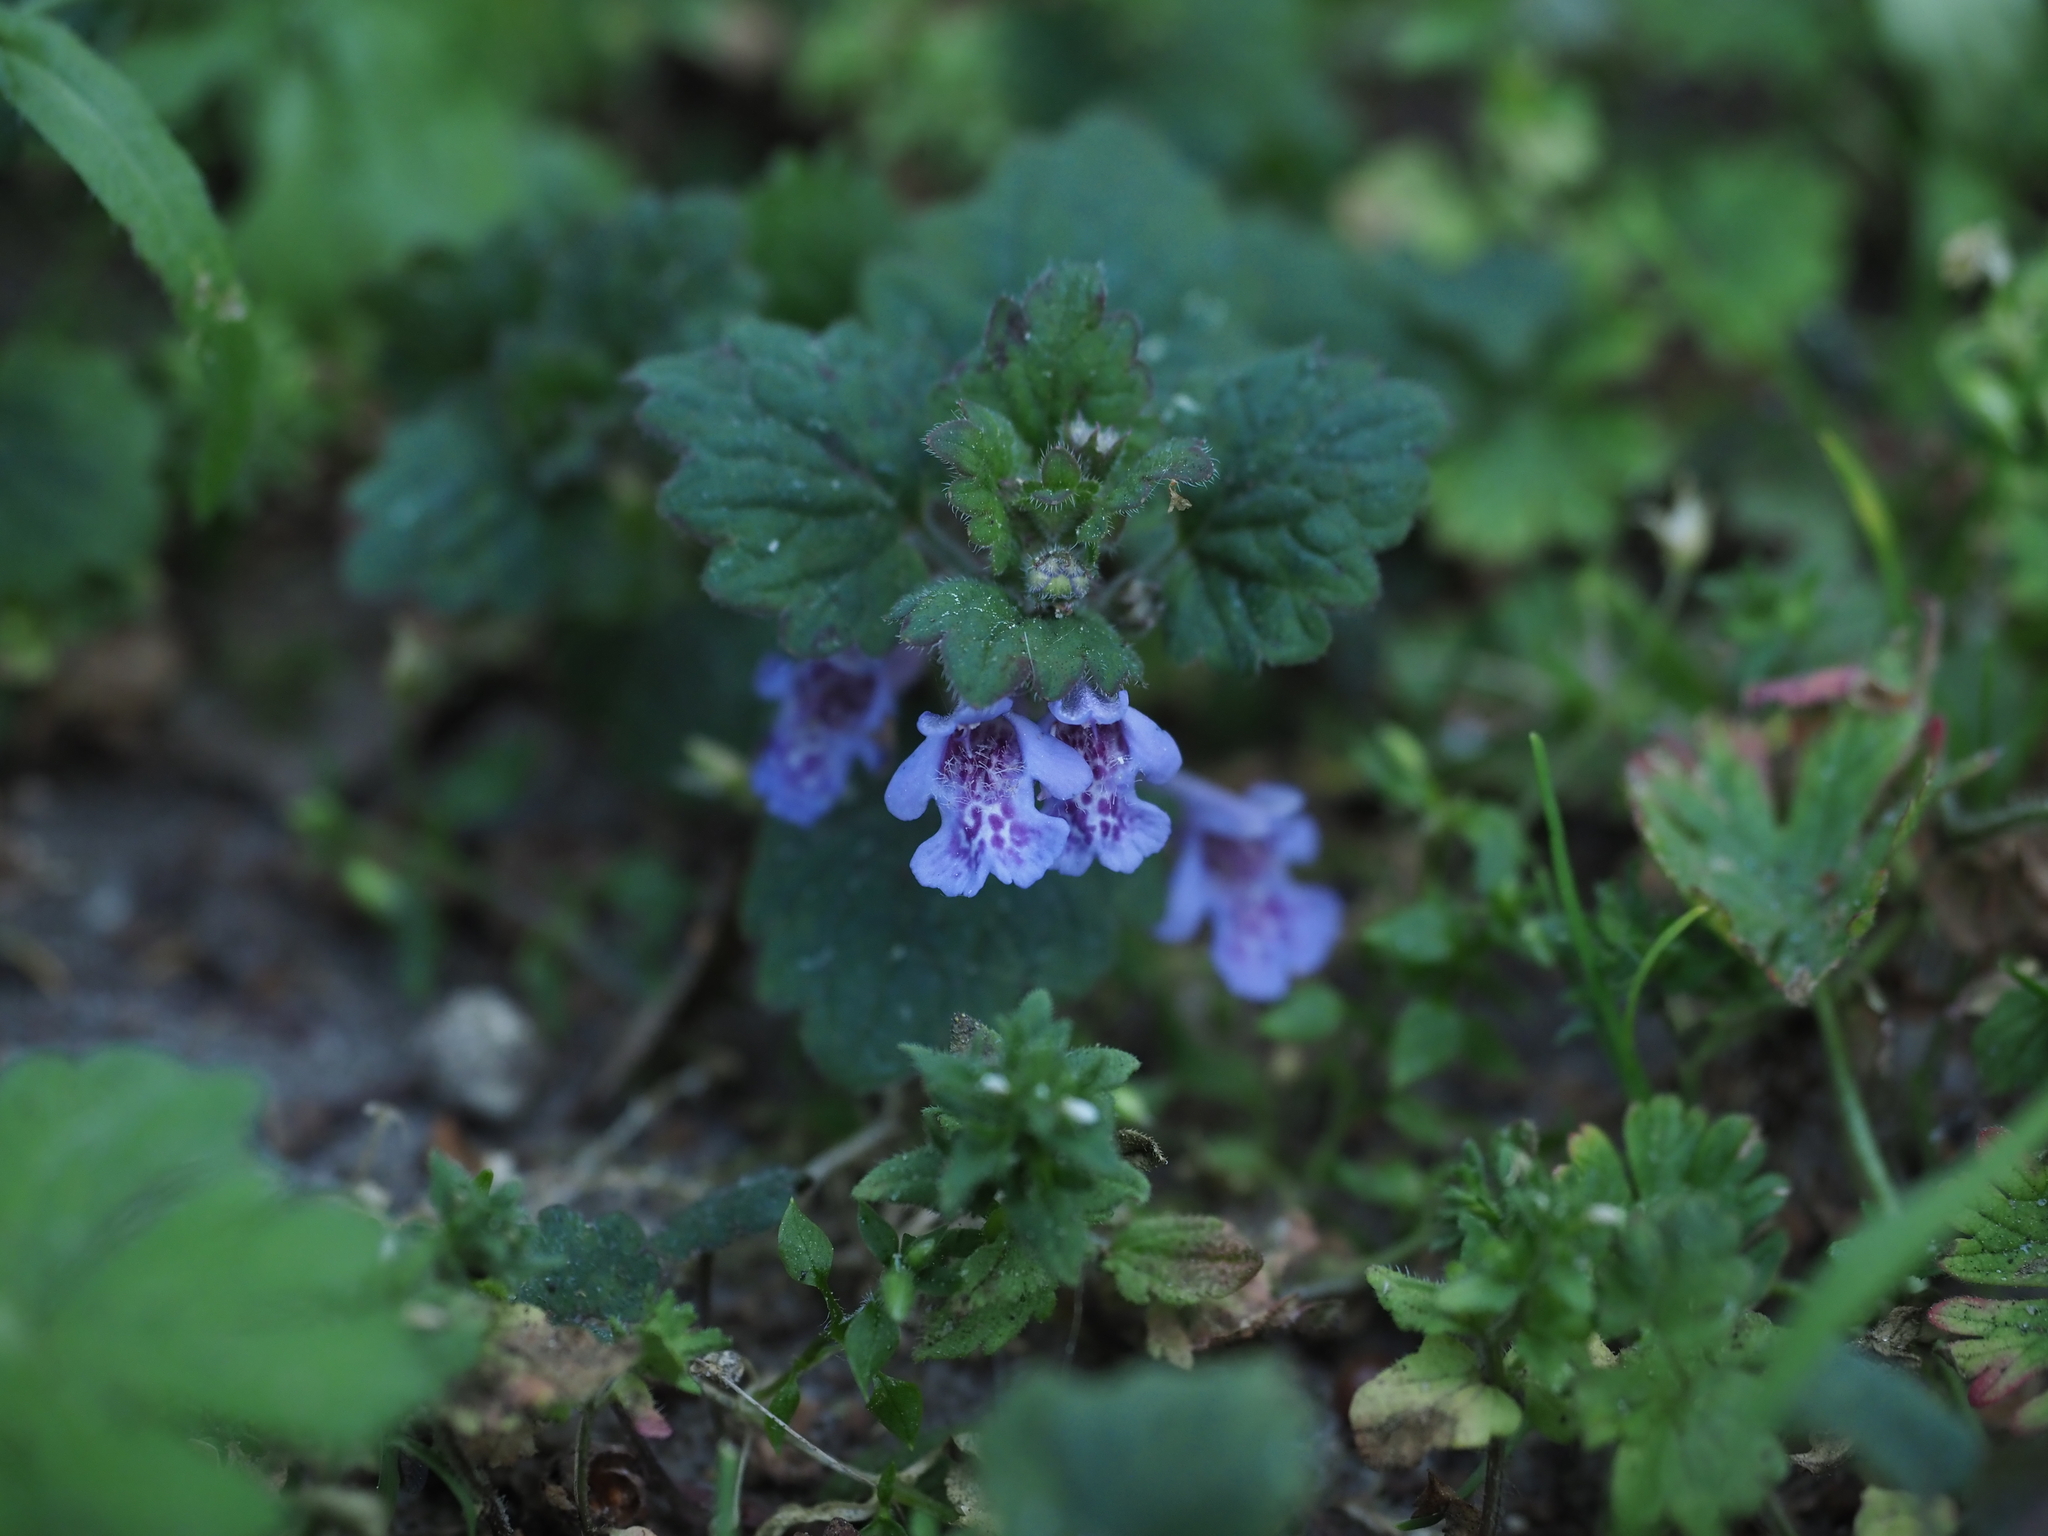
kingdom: Plantae
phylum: Tracheophyta
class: Magnoliopsida
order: Lamiales
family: Lamiaceae
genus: Glechoma
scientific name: Glechoma hederacea
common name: Ground ivy
